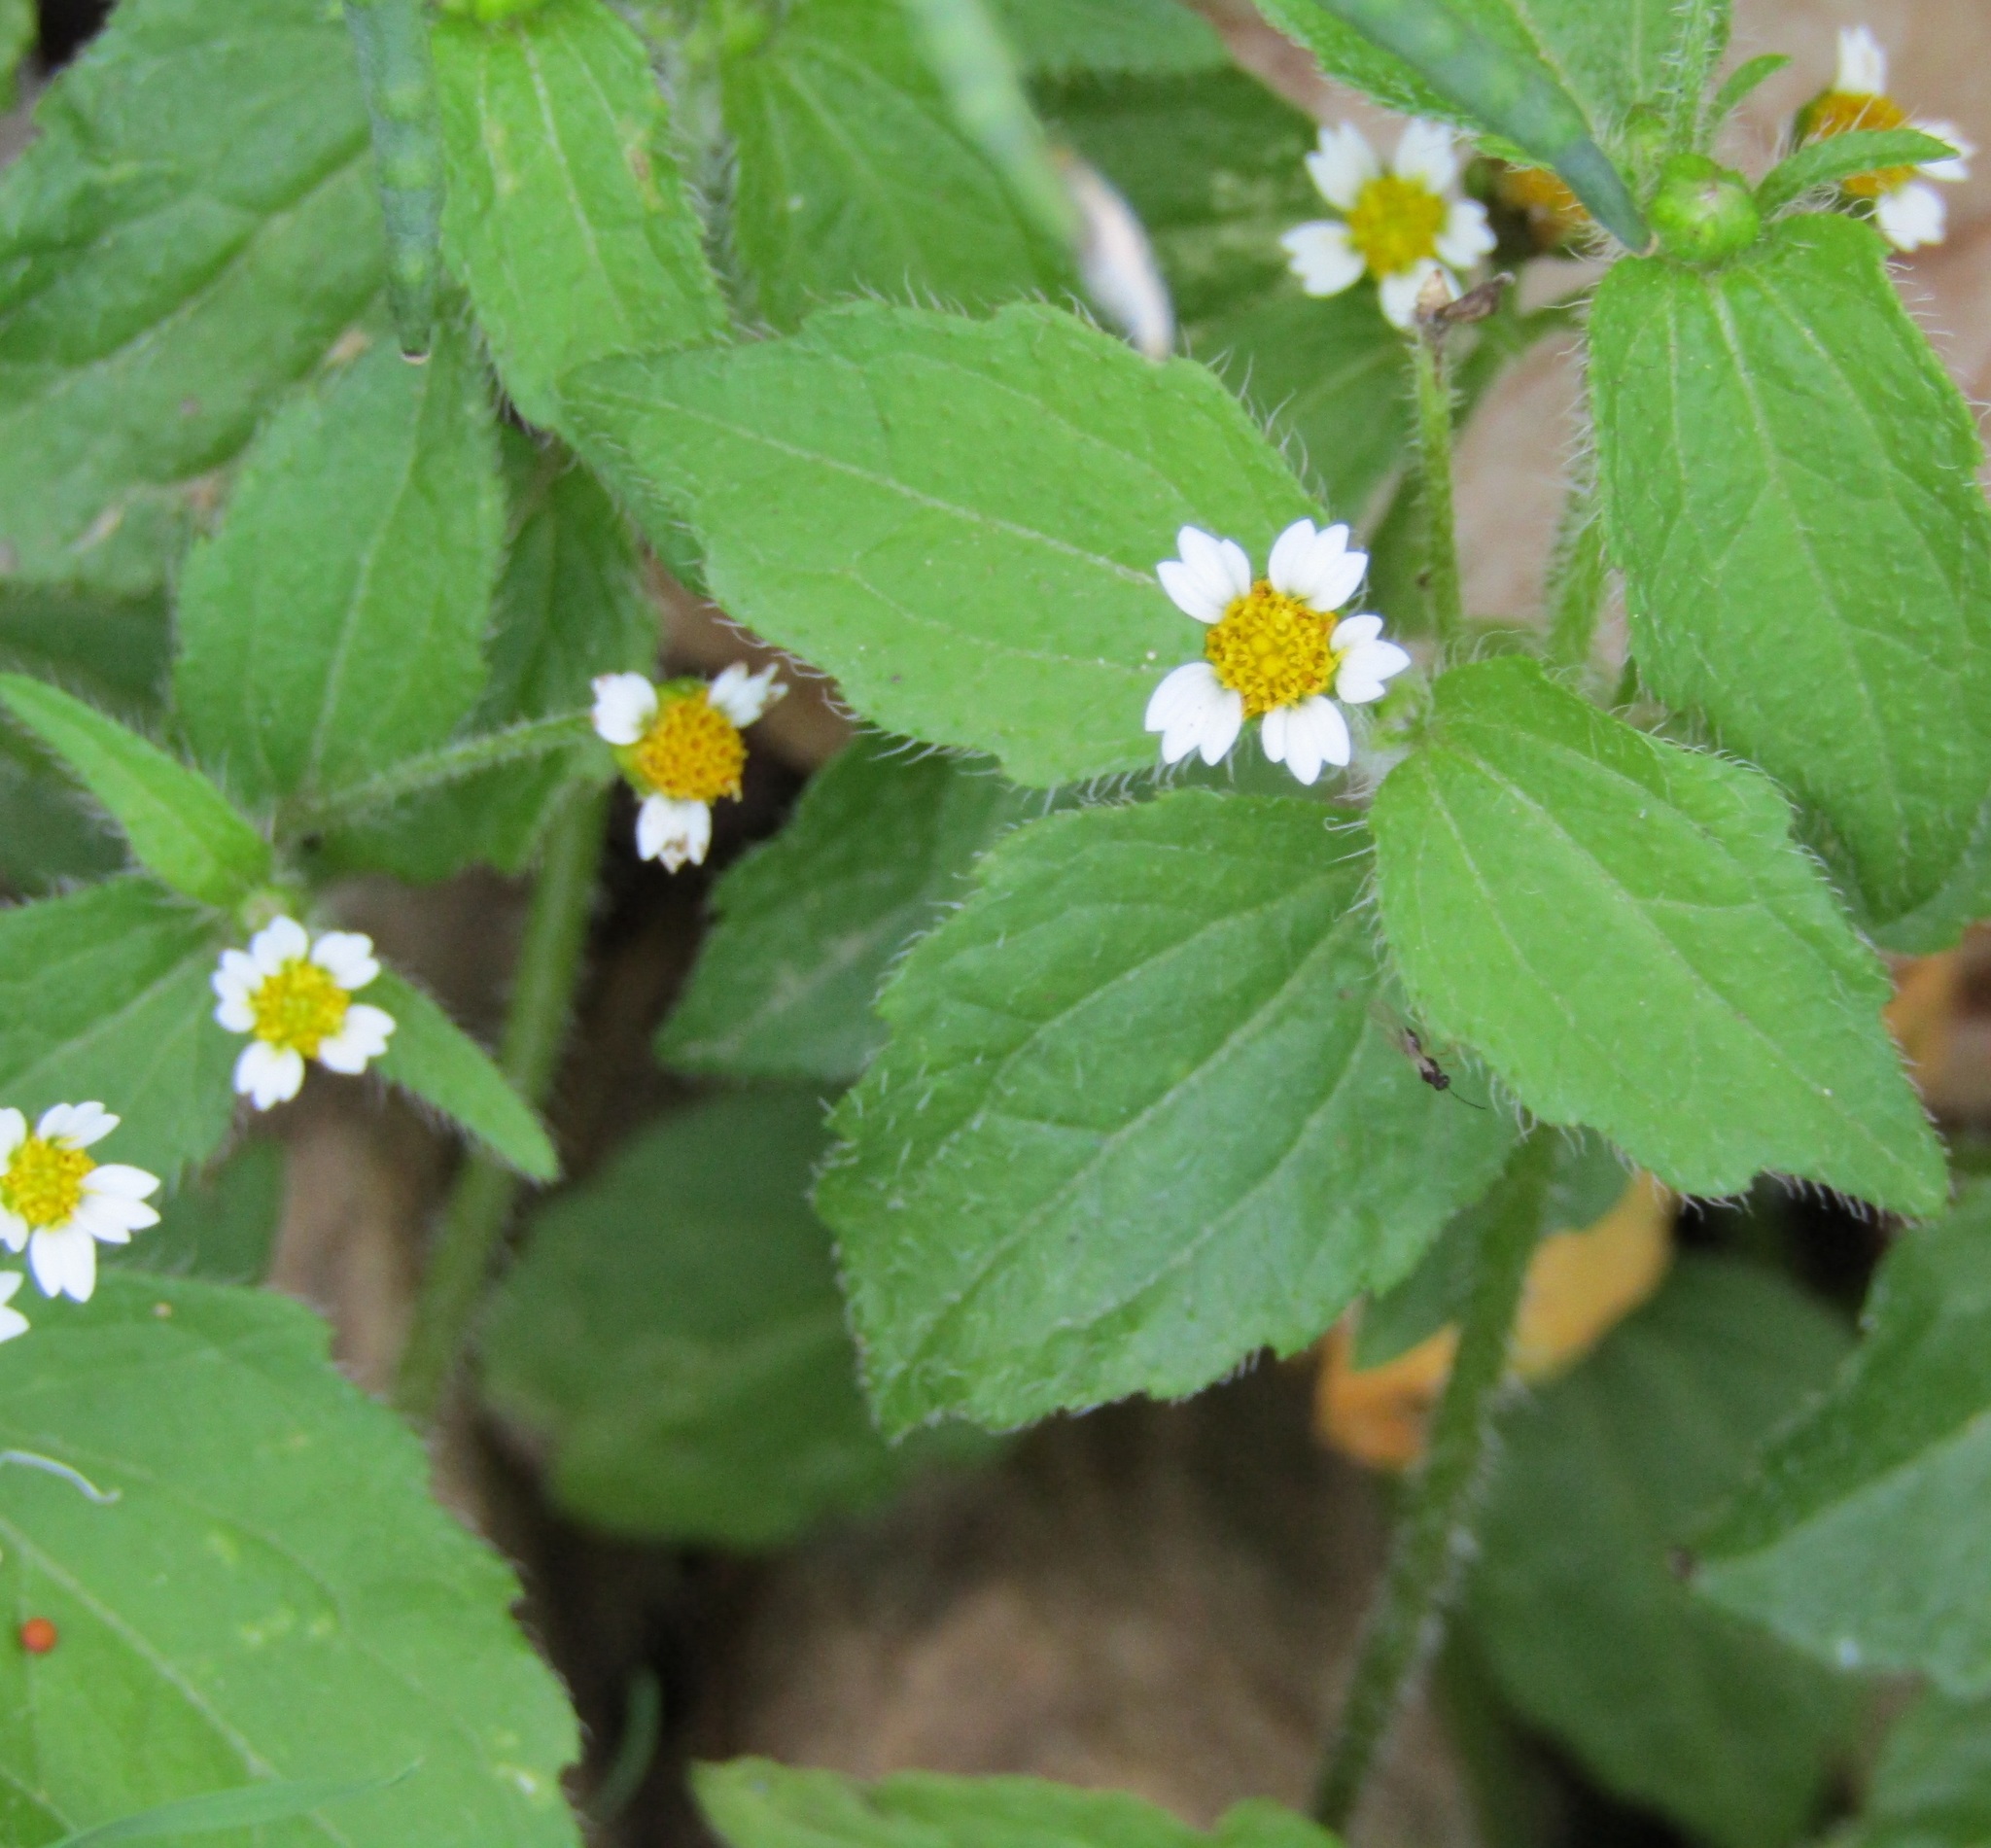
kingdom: Plantae
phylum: Tracheophyta
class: Magnoliopsida
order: Asterales
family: Asteraceae
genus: Galinsoga
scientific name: Galinsoga quadriradiata
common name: Shaggy soldier
